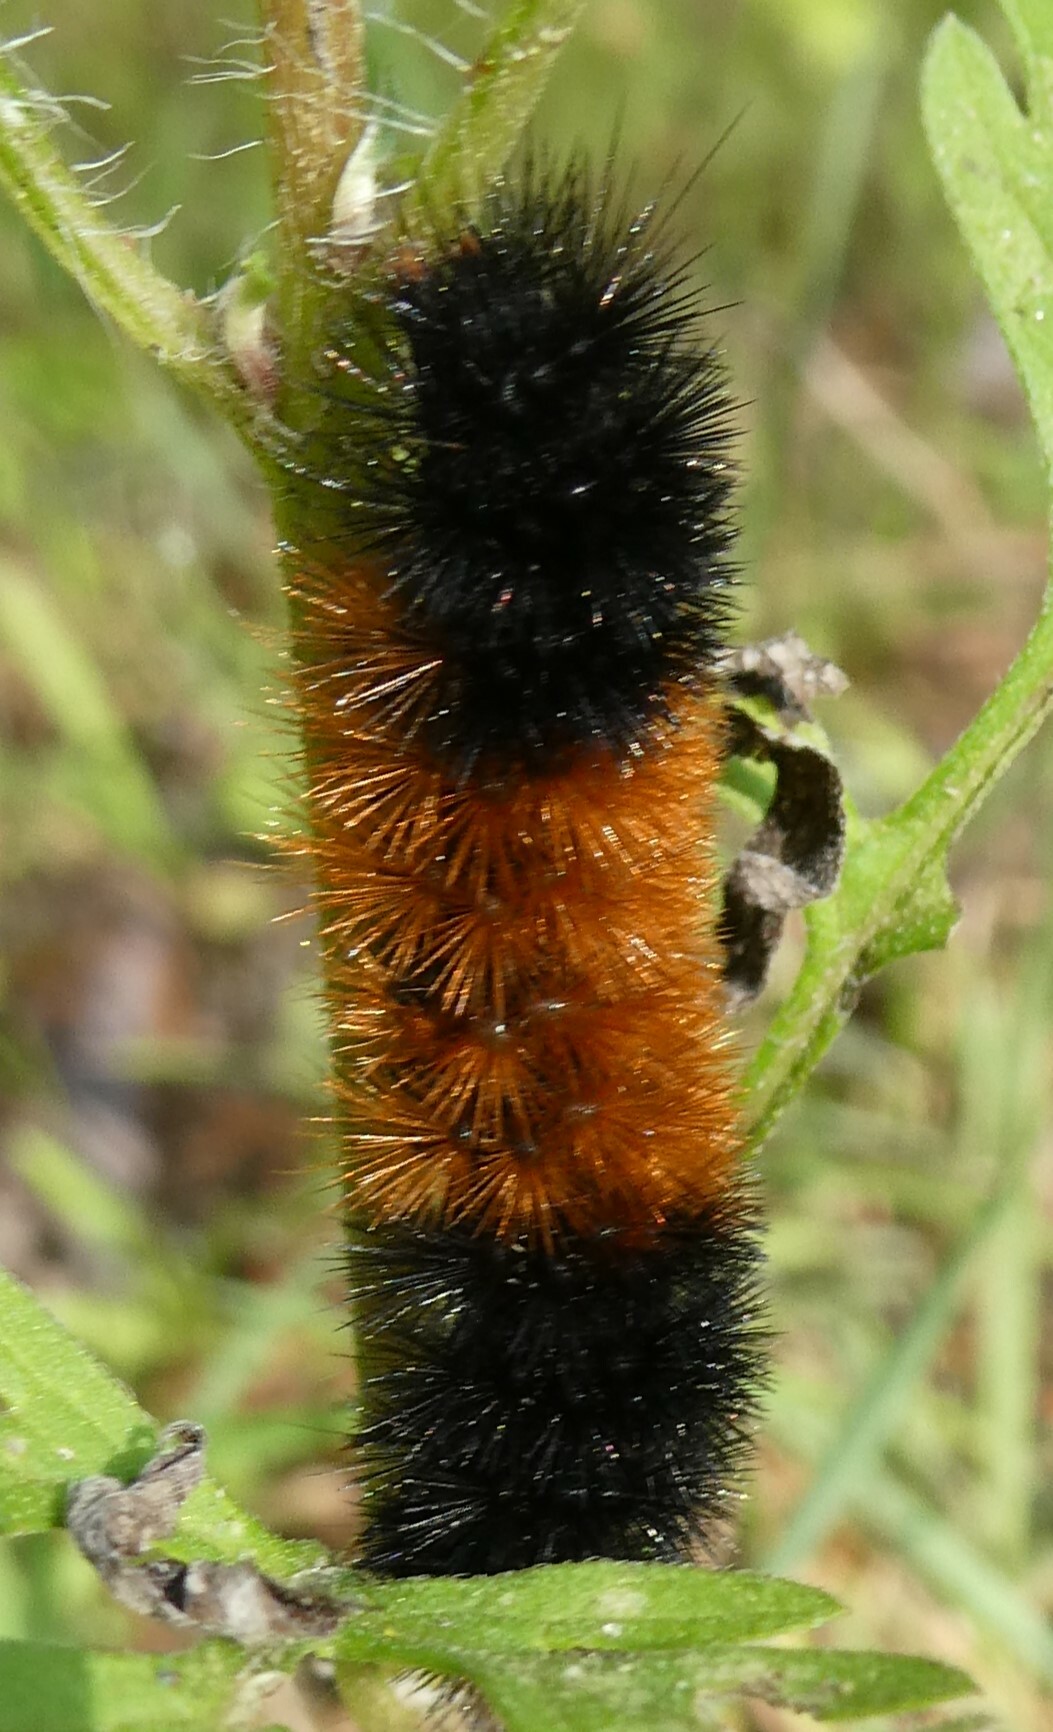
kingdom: Animalia
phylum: Arthropoda
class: Insecta
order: Lepidoptera
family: Erebidae
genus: Pyrrharctia
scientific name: Pyrrharctia isabella
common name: Isabella tiger moth
